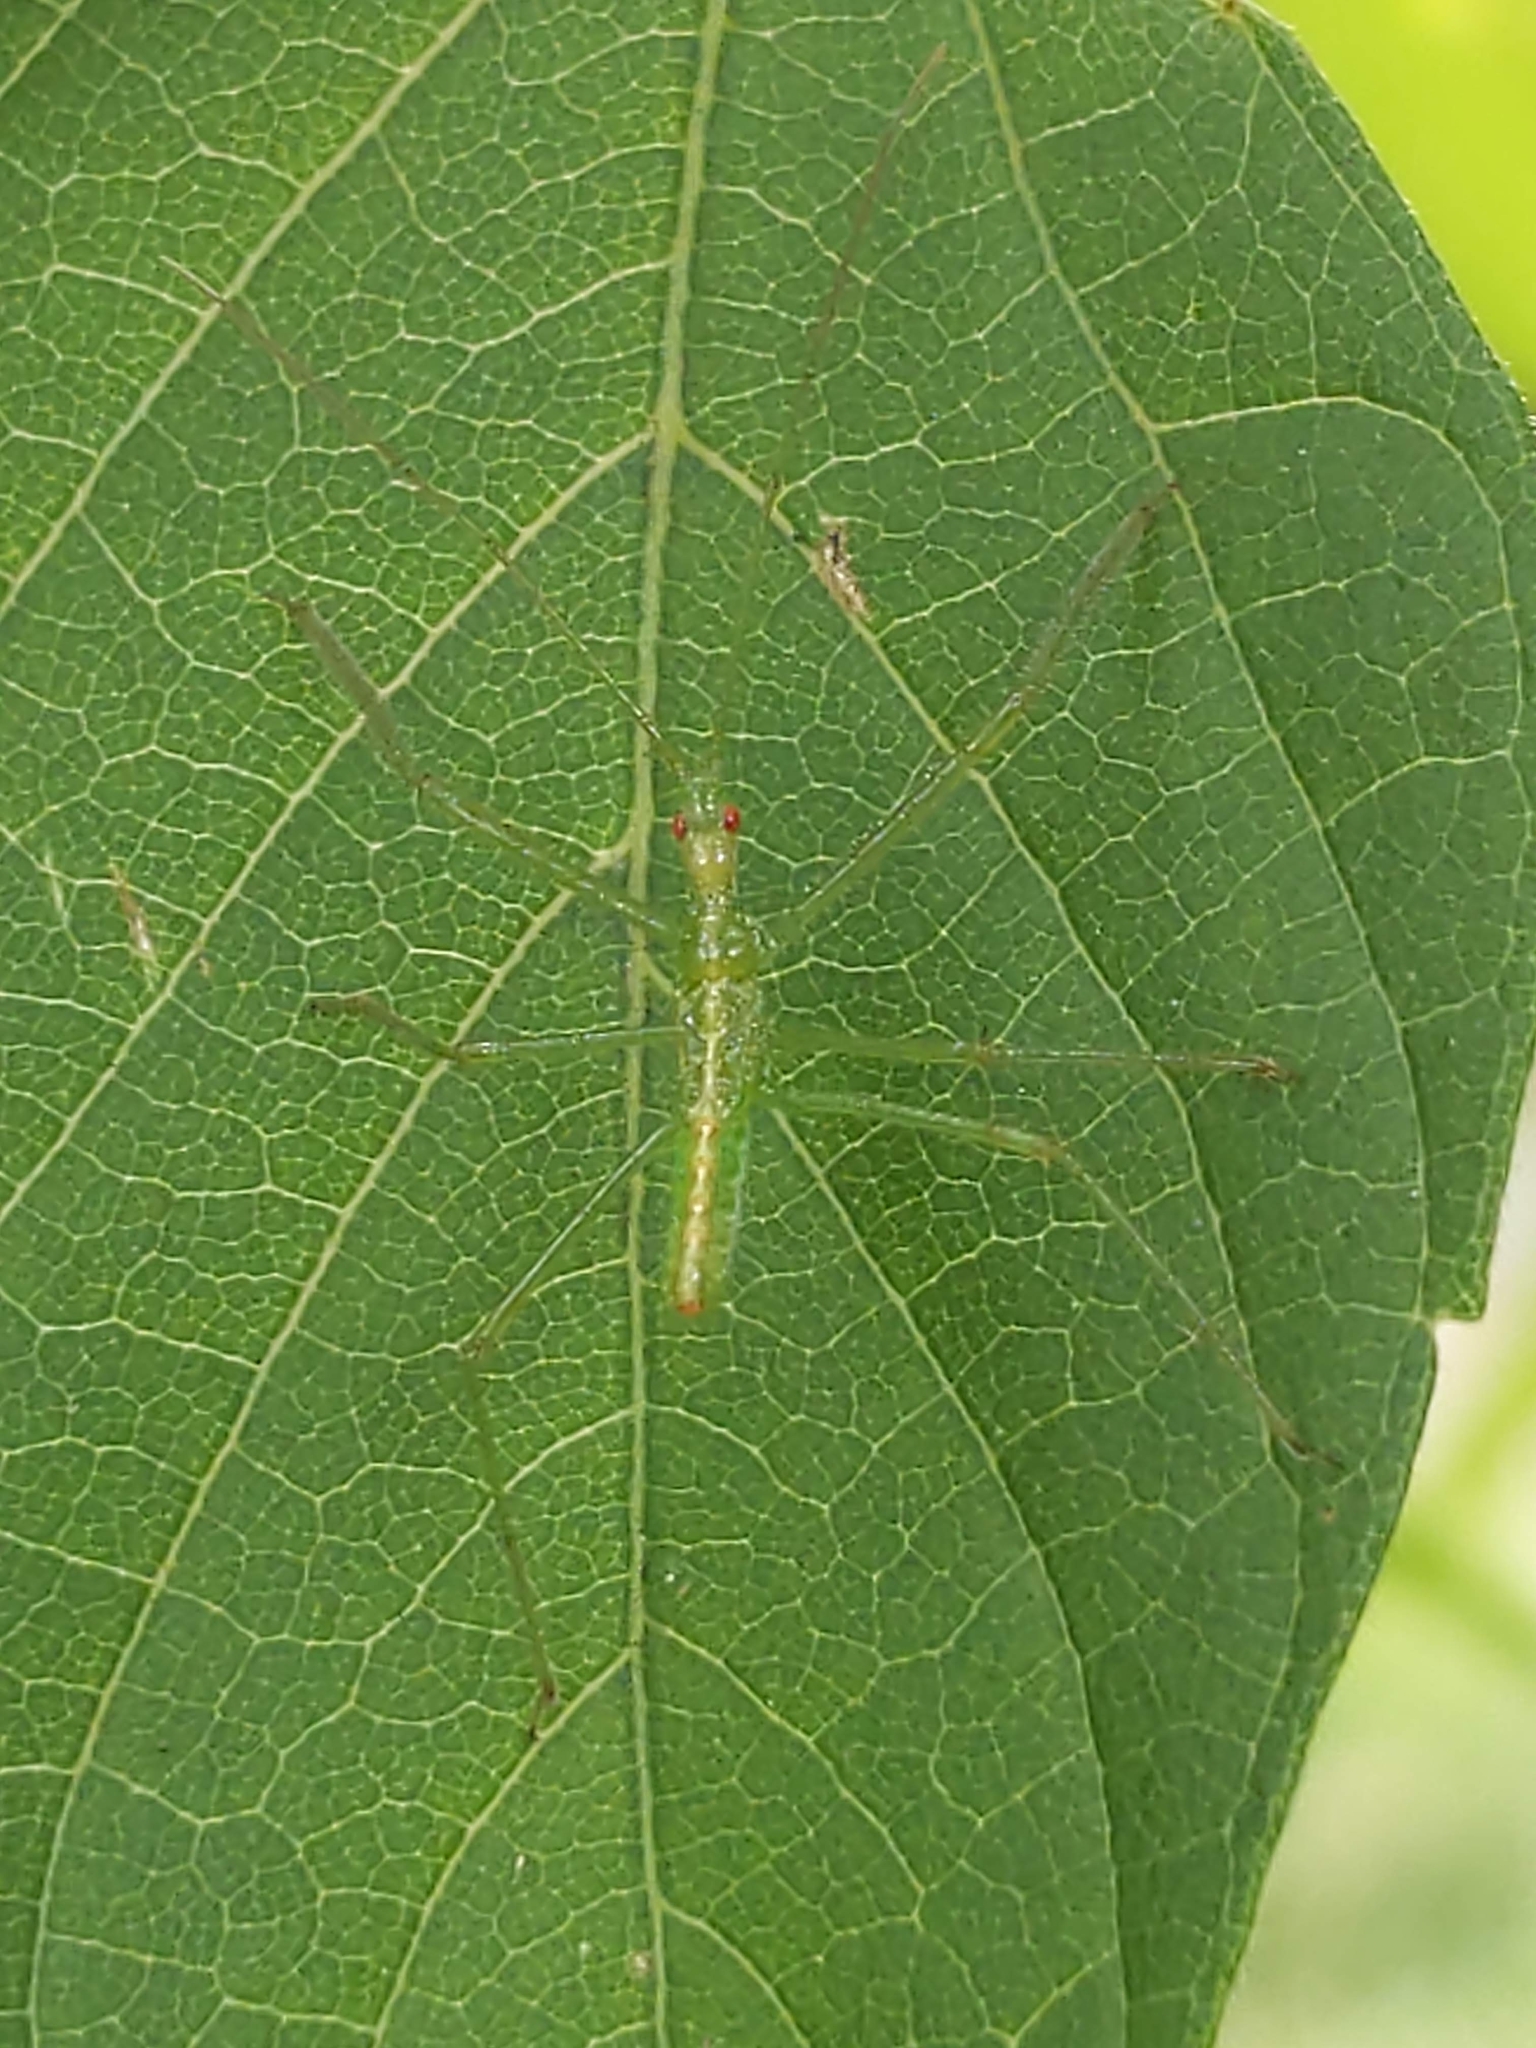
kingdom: Animalia
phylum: Arthropoda
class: Insecta
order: Hemiptera
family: Reduviidae
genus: Zelus
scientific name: Zelus luridus
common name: Pale green assassin bug
